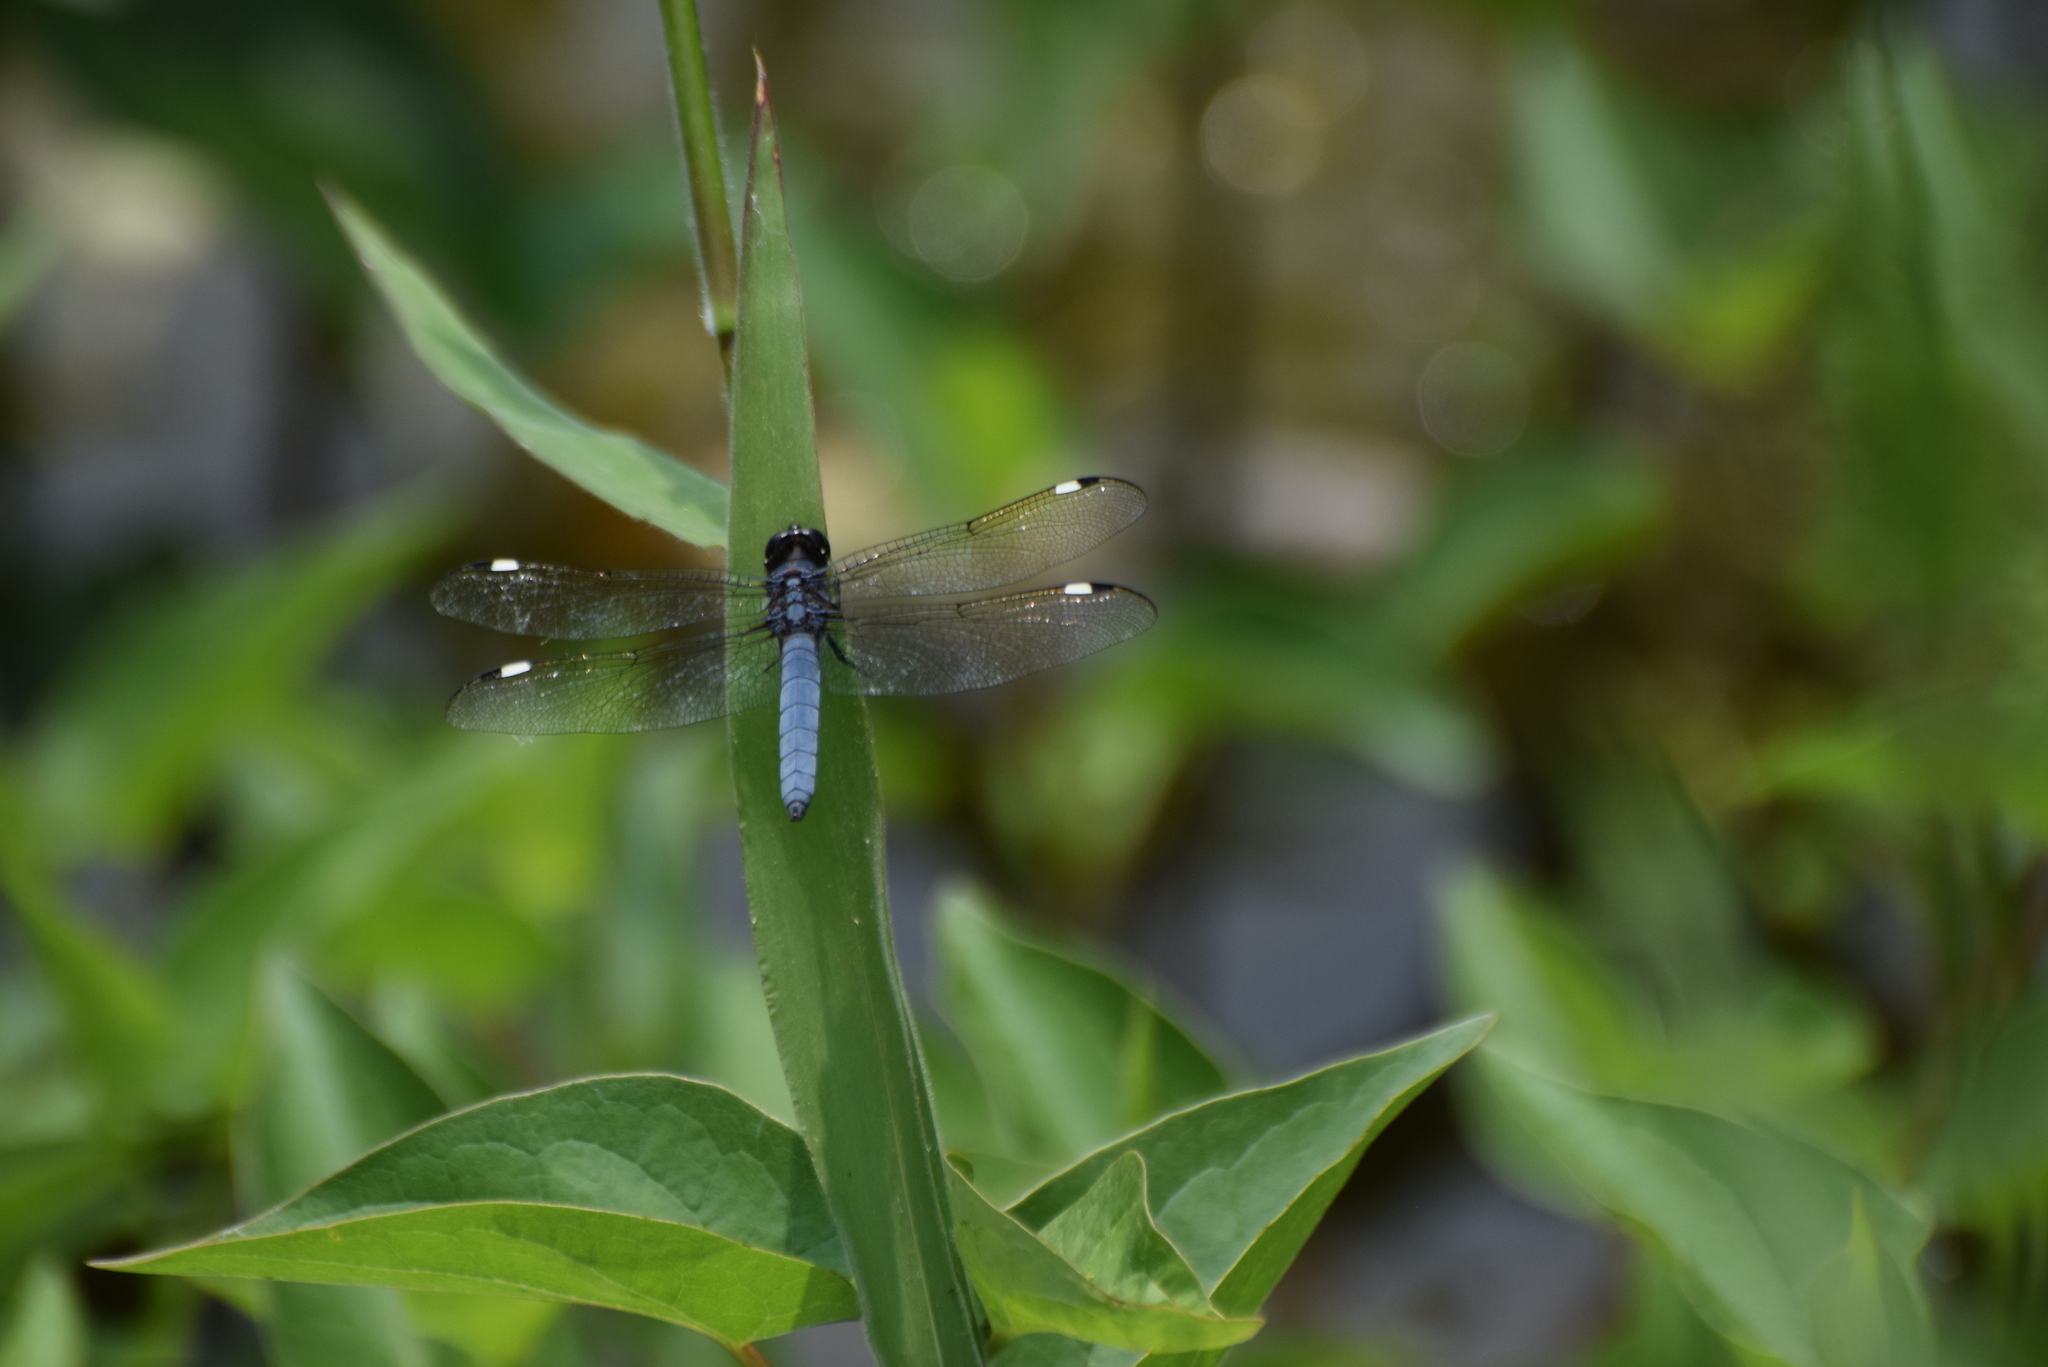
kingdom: Animalia
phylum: Arthropoda
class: Insecta
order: Odonata
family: Libellulidae
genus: Libellula
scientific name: Libellula cyanea
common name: Spangled skimmer
